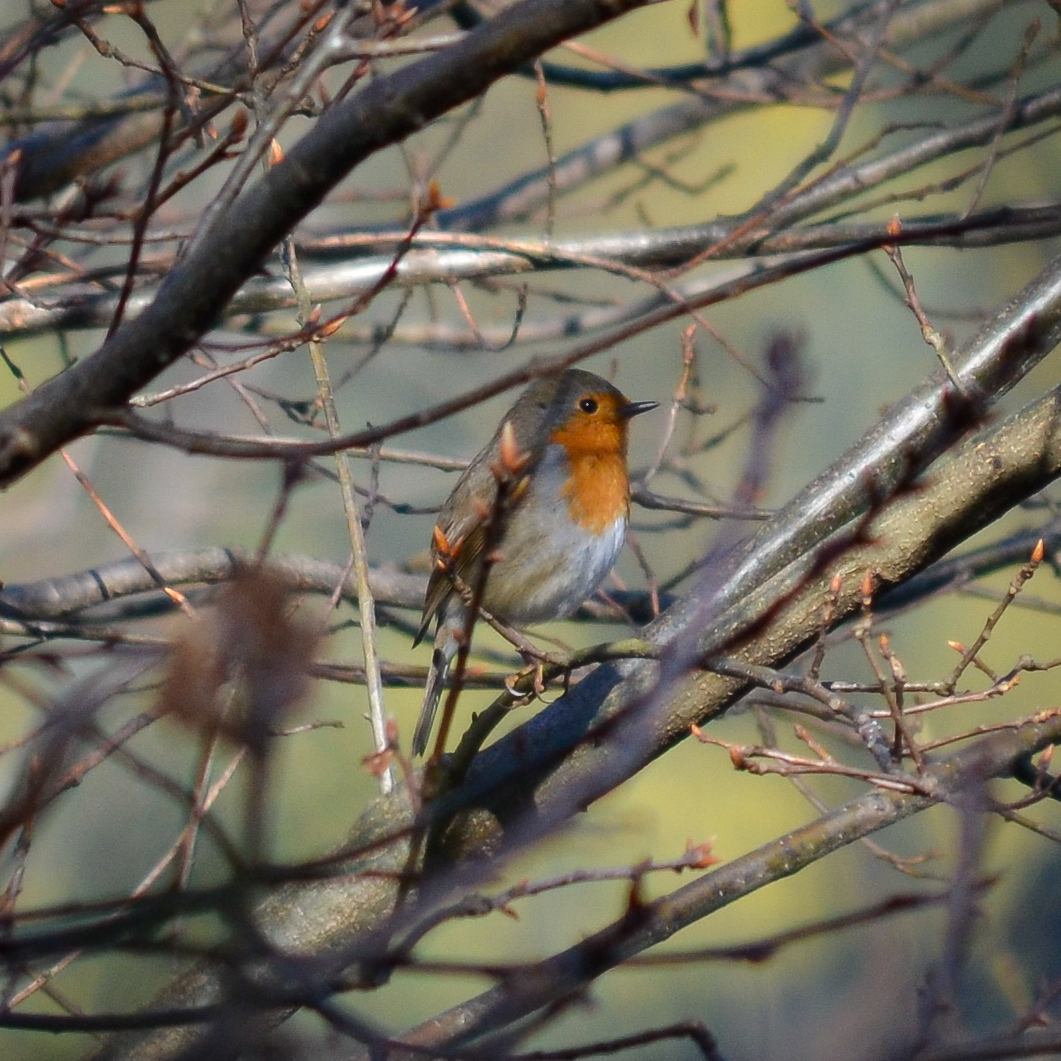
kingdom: Animalia
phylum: Chordata
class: Aves
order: Passeriformes
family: Muscicapidae
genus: Erithacus
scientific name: Erithacus rubecula
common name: European robin
